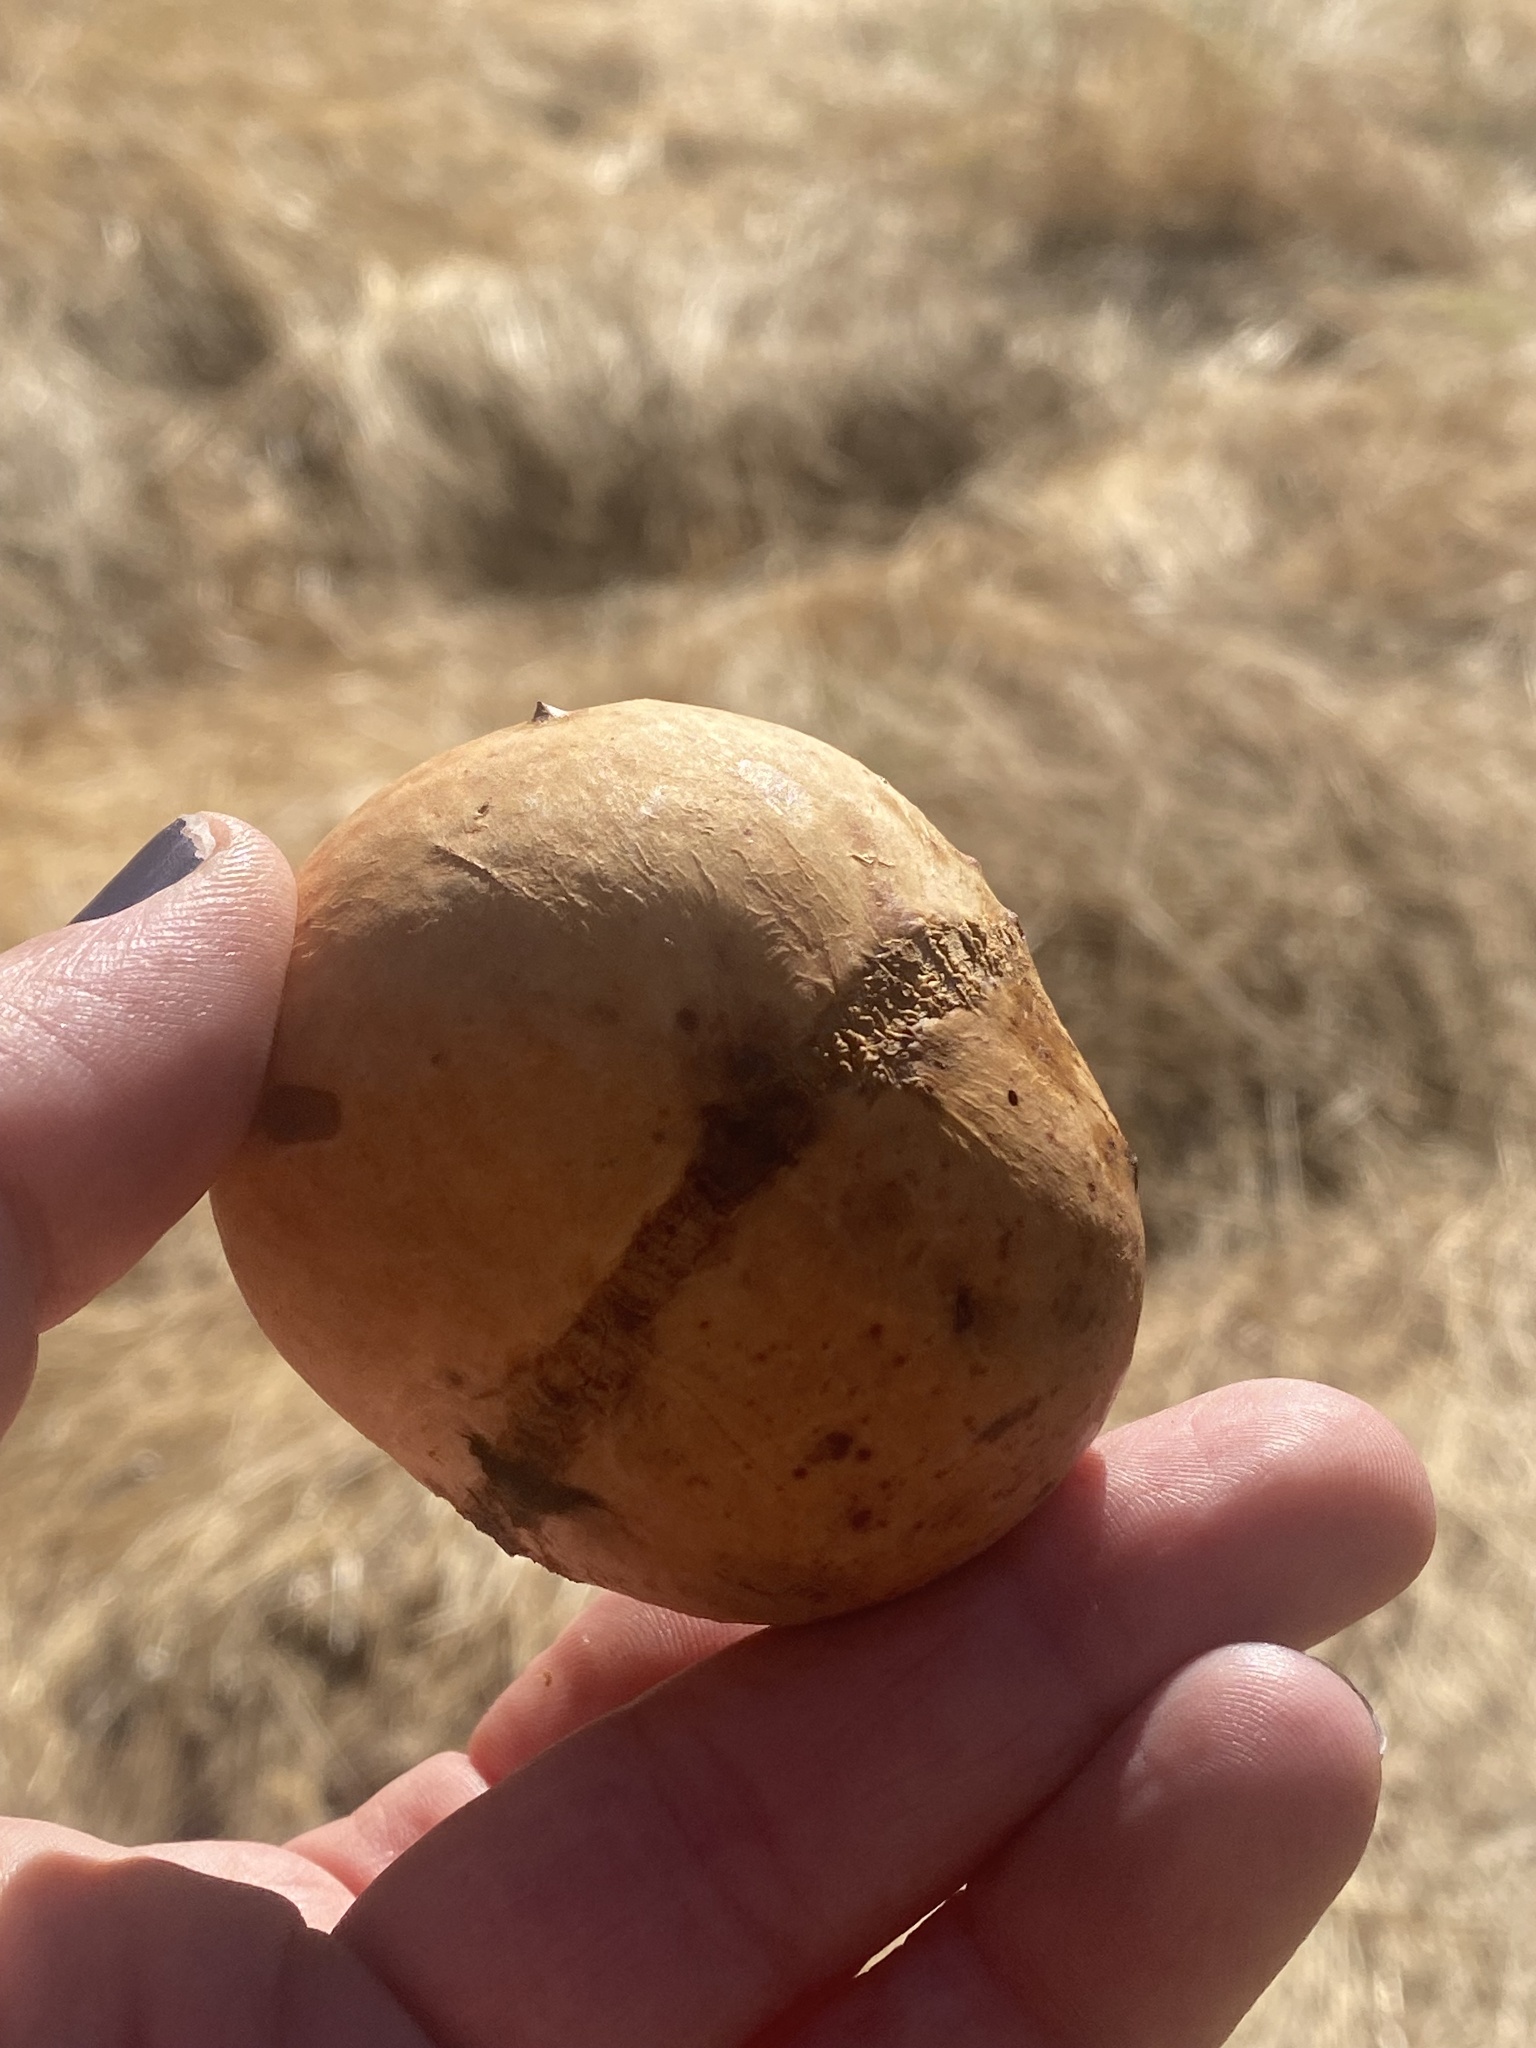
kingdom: Animalia
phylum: Arthropoda
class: Insecta
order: Hymenoptera
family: Cynipidae
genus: Andricus
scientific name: Andricus quercuscalifornicus
